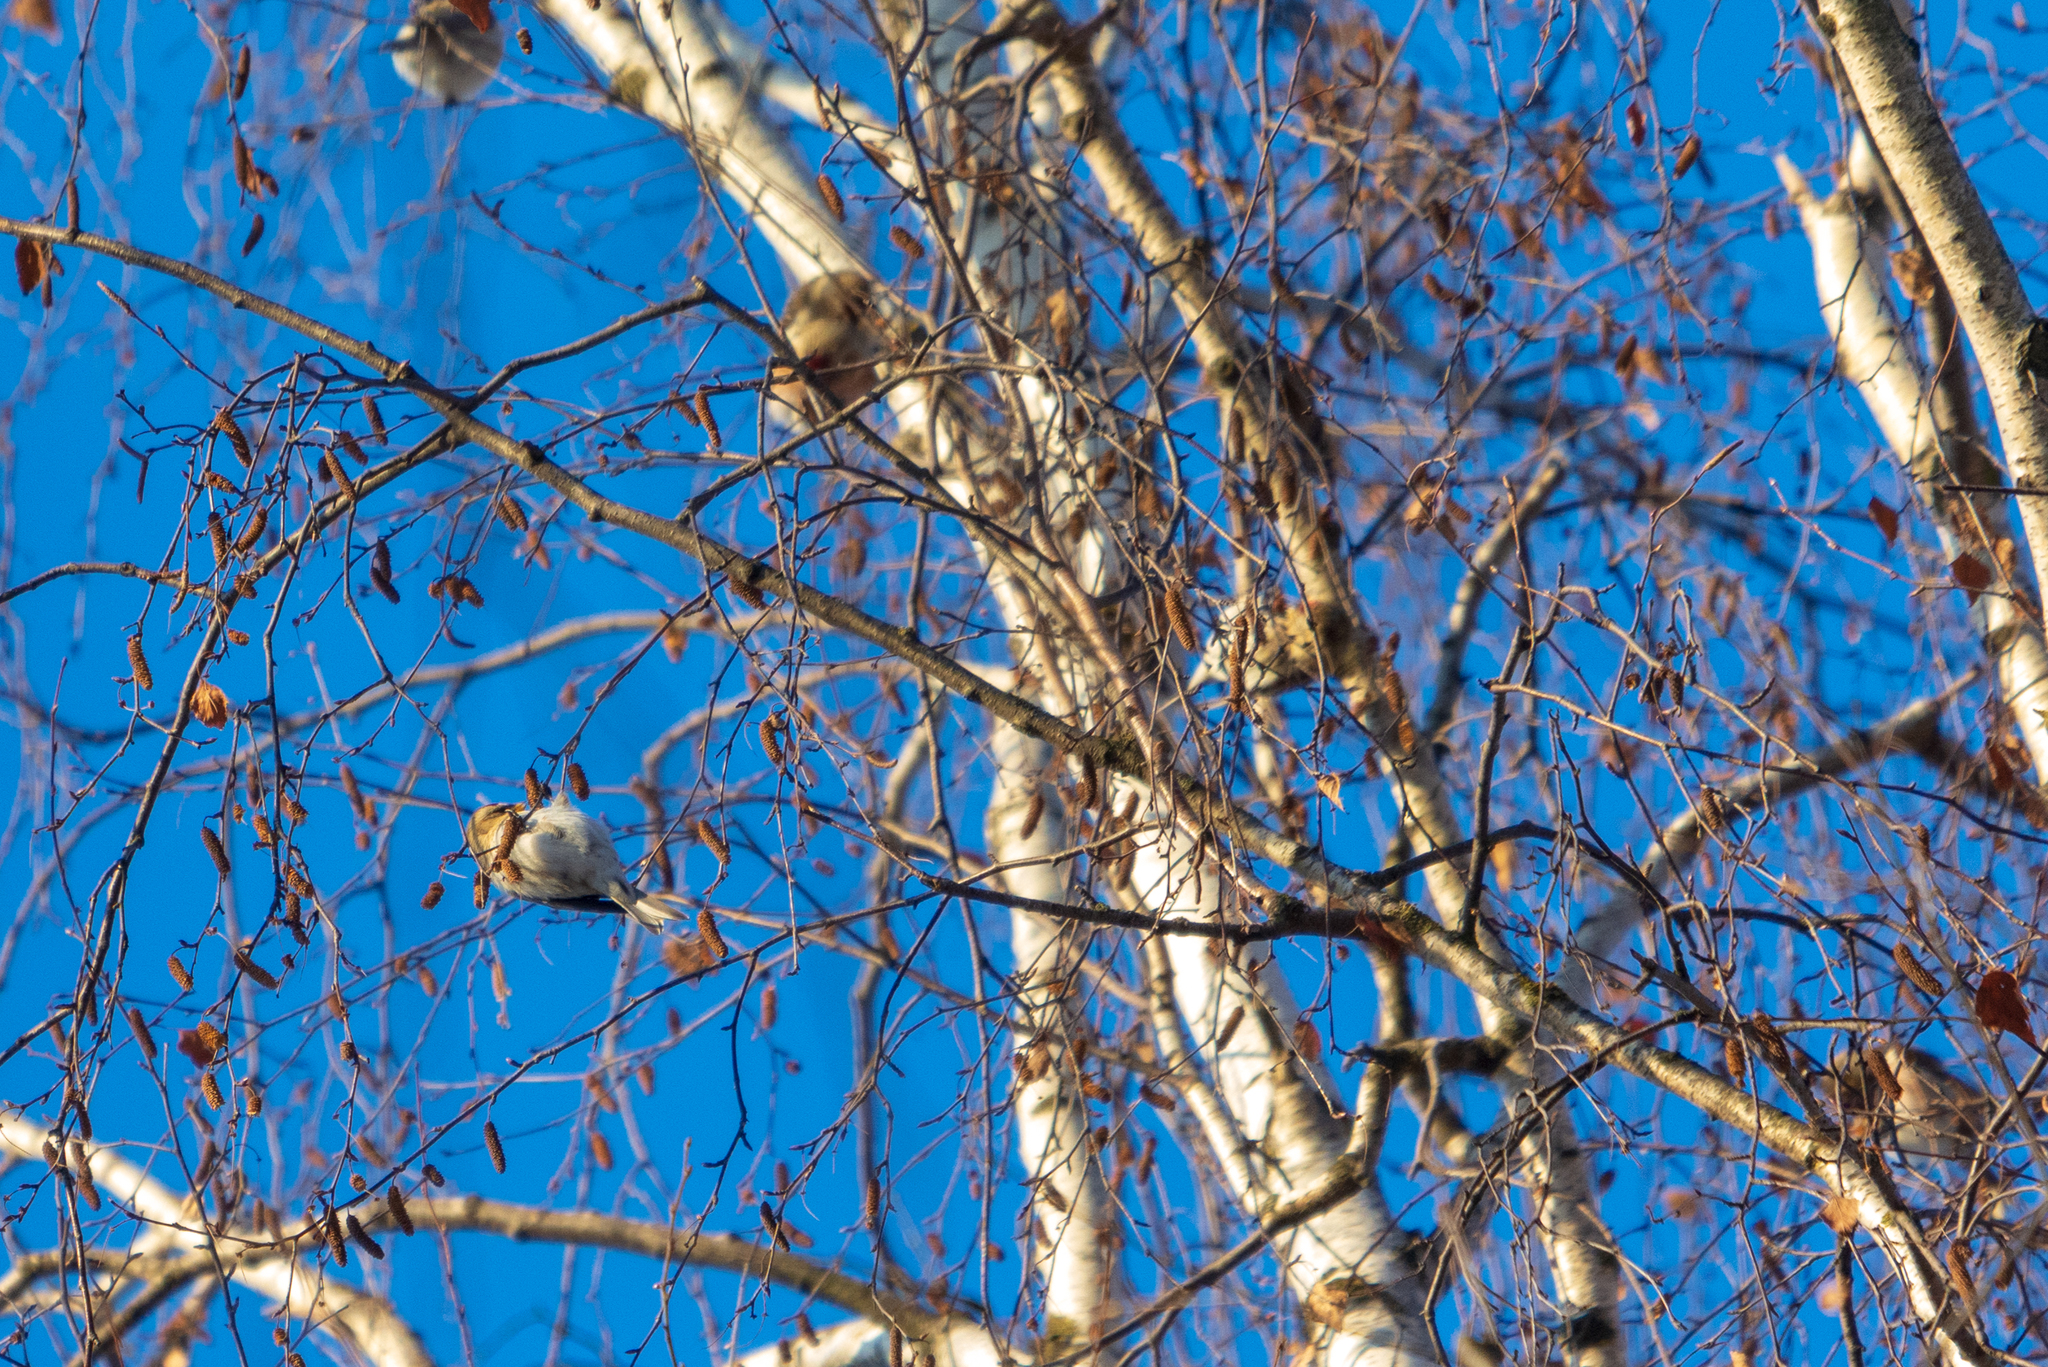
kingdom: Animalia
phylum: Chordata
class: Aves
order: Passeriformes
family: Fringillidae
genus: Acanthis
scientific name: Acanthis flammea
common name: Common redpoll
